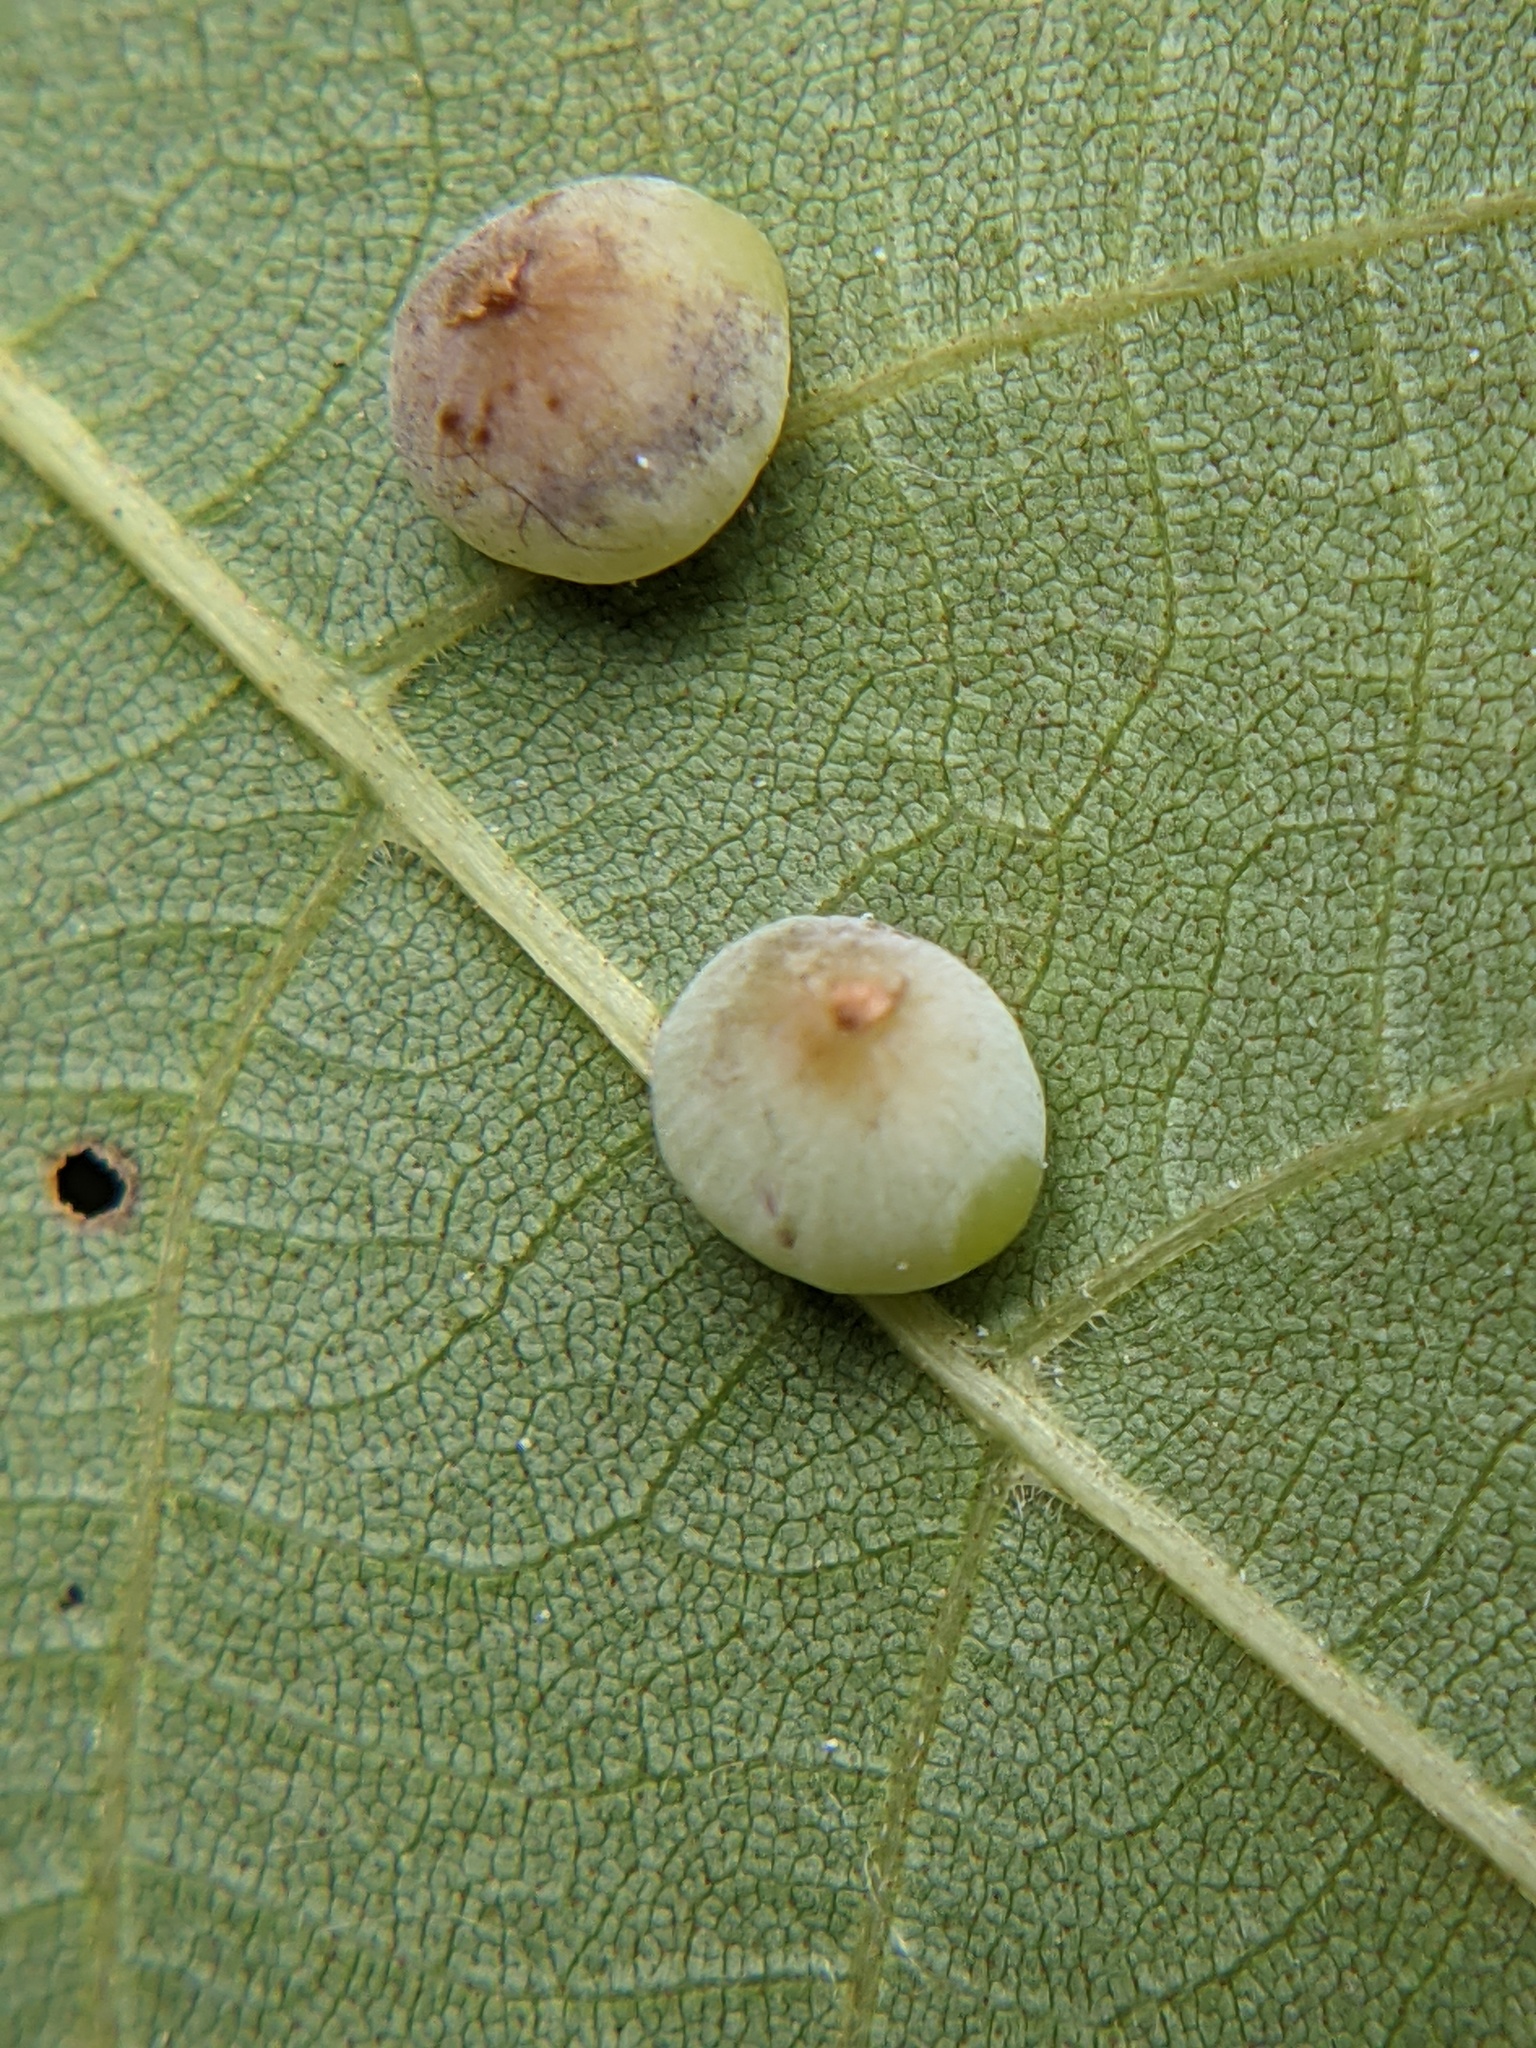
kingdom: Animalia
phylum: Arthropoda
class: Insecta
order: Diptera
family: Cecidomyiidae
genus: Caryomyia
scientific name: Caryomyia glauciglobus
